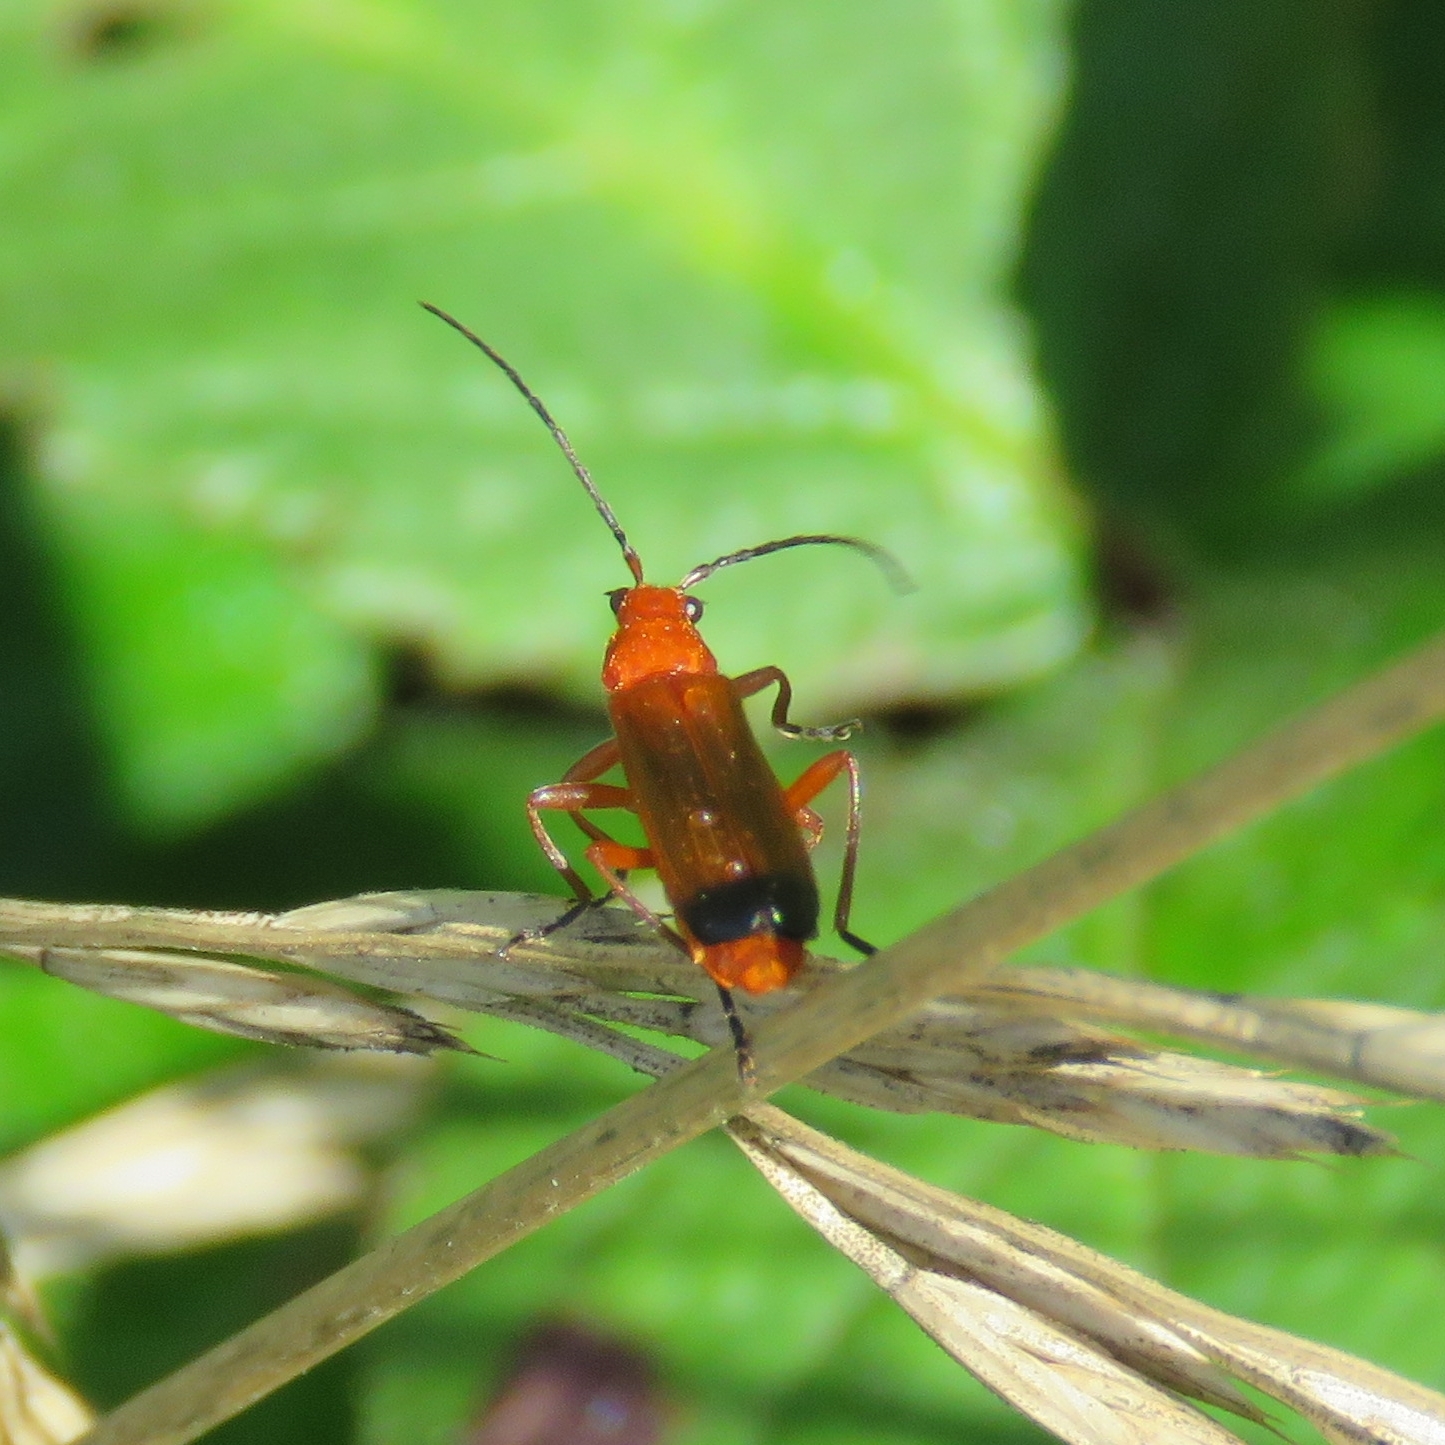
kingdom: Animalia
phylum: Arthropoda
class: Insecta
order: Coleoptera
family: Cantharidae
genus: Rhagonycha
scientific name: Rhagonycha fulva
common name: Common red soldier beetle
